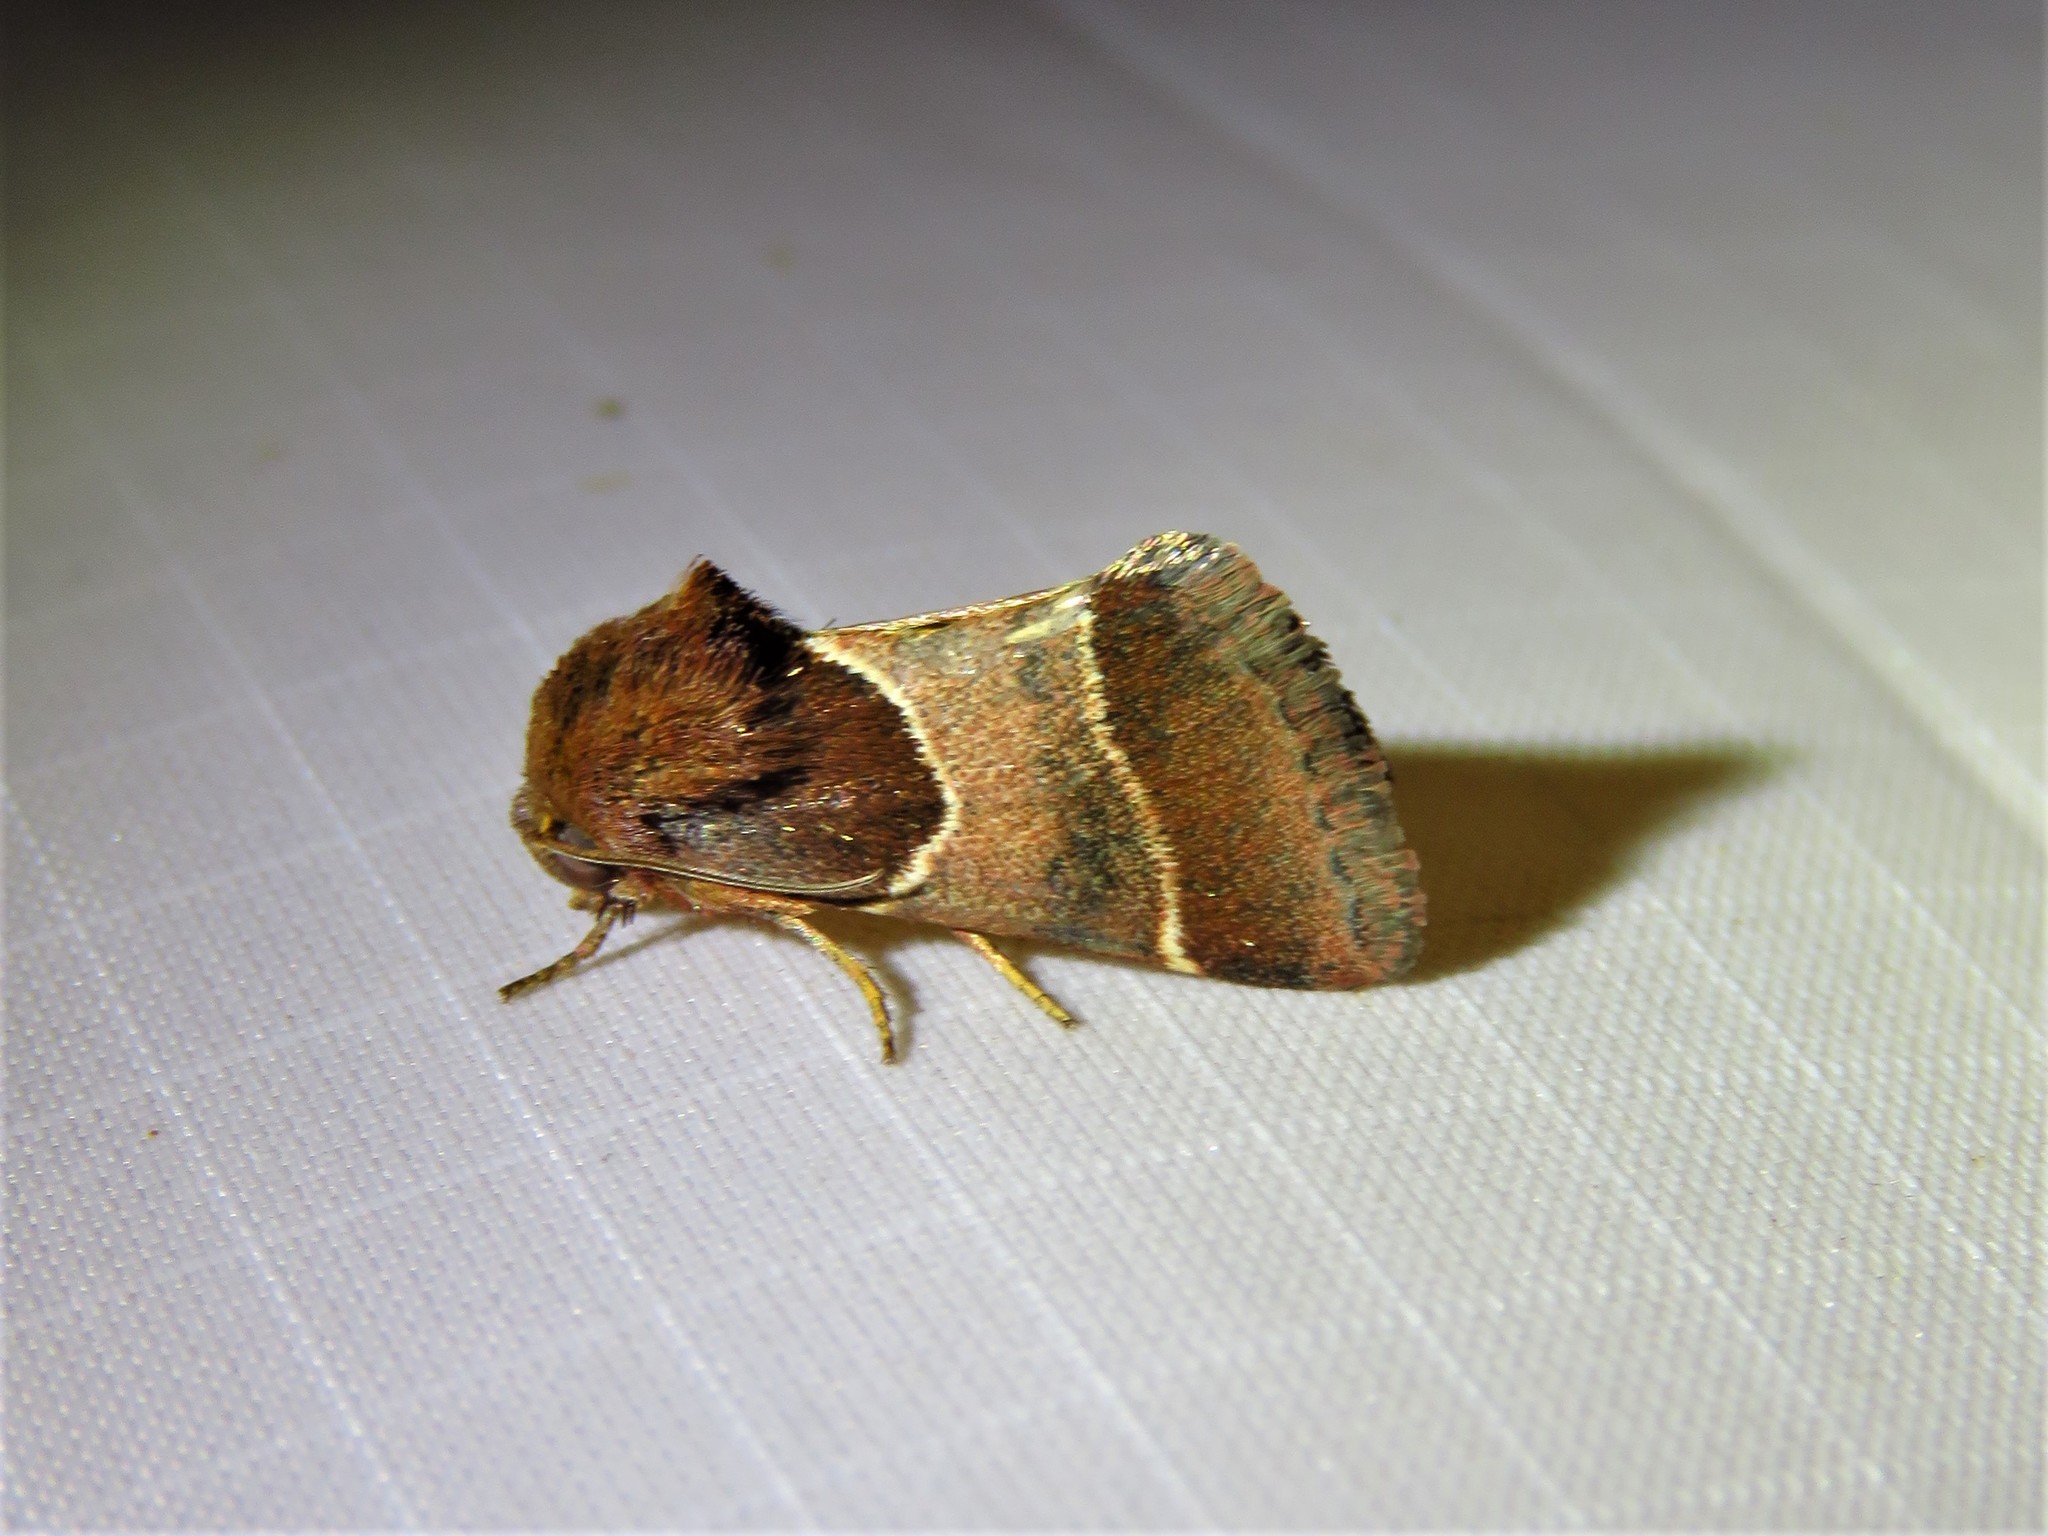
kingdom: Animalia
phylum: Arthropoda
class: Insecta
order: Lepidoptera
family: Noctuidae
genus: Schinia
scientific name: Schinia arcigera
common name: Arcigera flower moth
